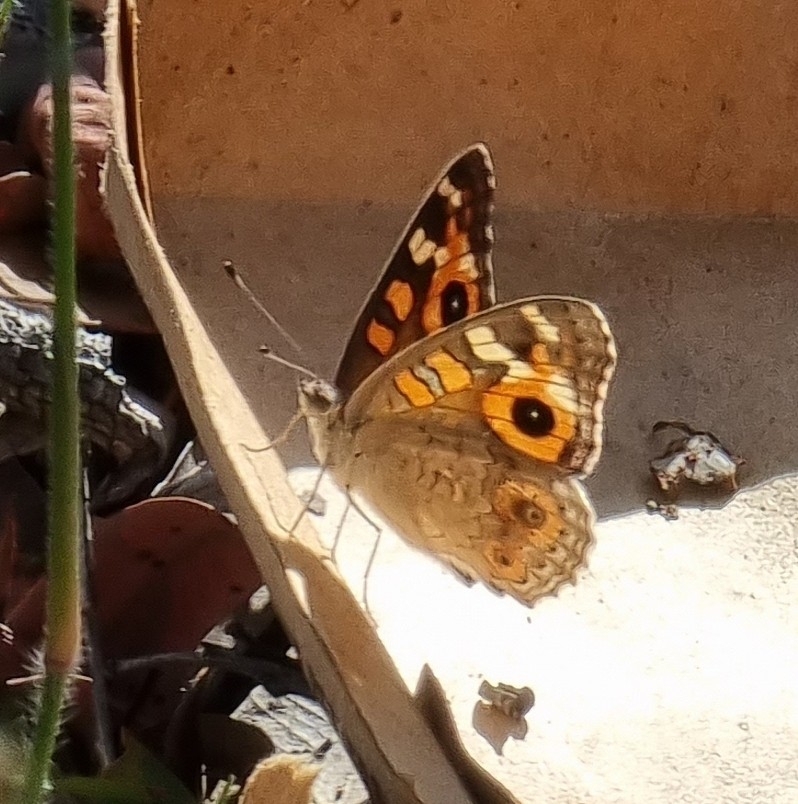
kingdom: Animalia
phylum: Arthropoda
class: Insecta
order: Lepidoptera
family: Nymphalidae
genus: Junonia
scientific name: Junonia villida
